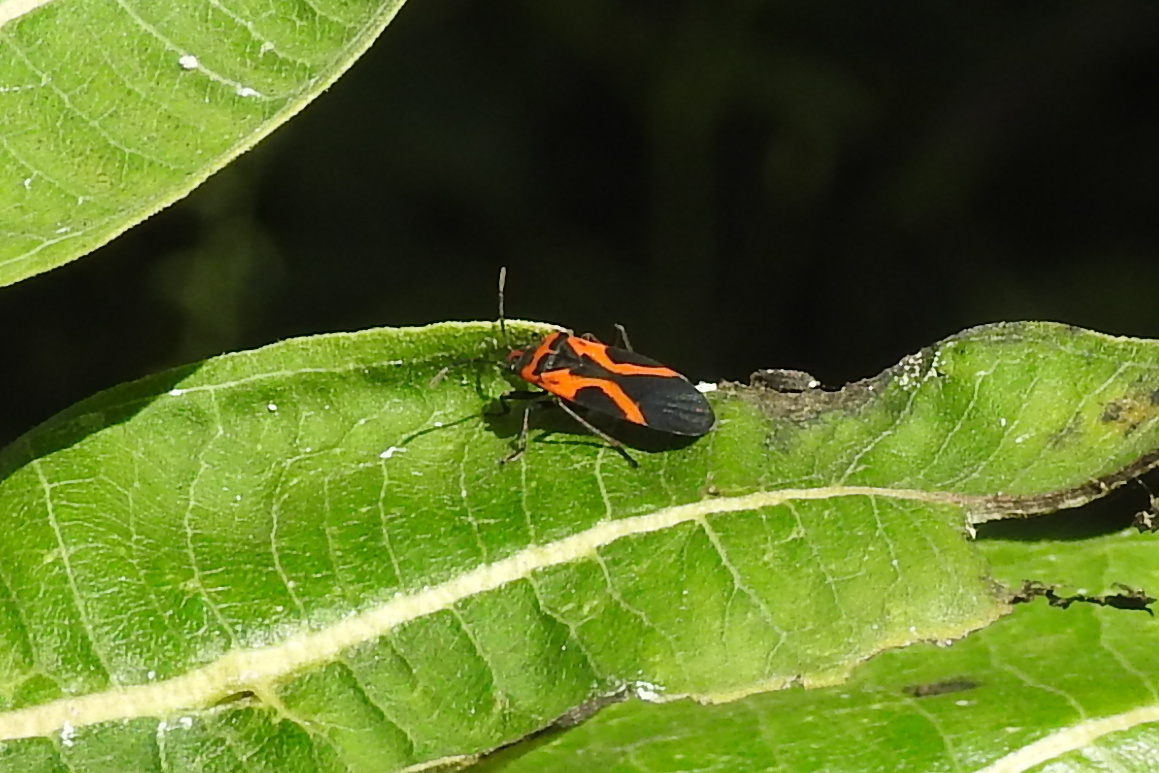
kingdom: Animalia
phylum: Arthropoda
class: Insecta
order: Hemiptera
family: Lygaeidae
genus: Lygaeus
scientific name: Lygaeus turcicus
